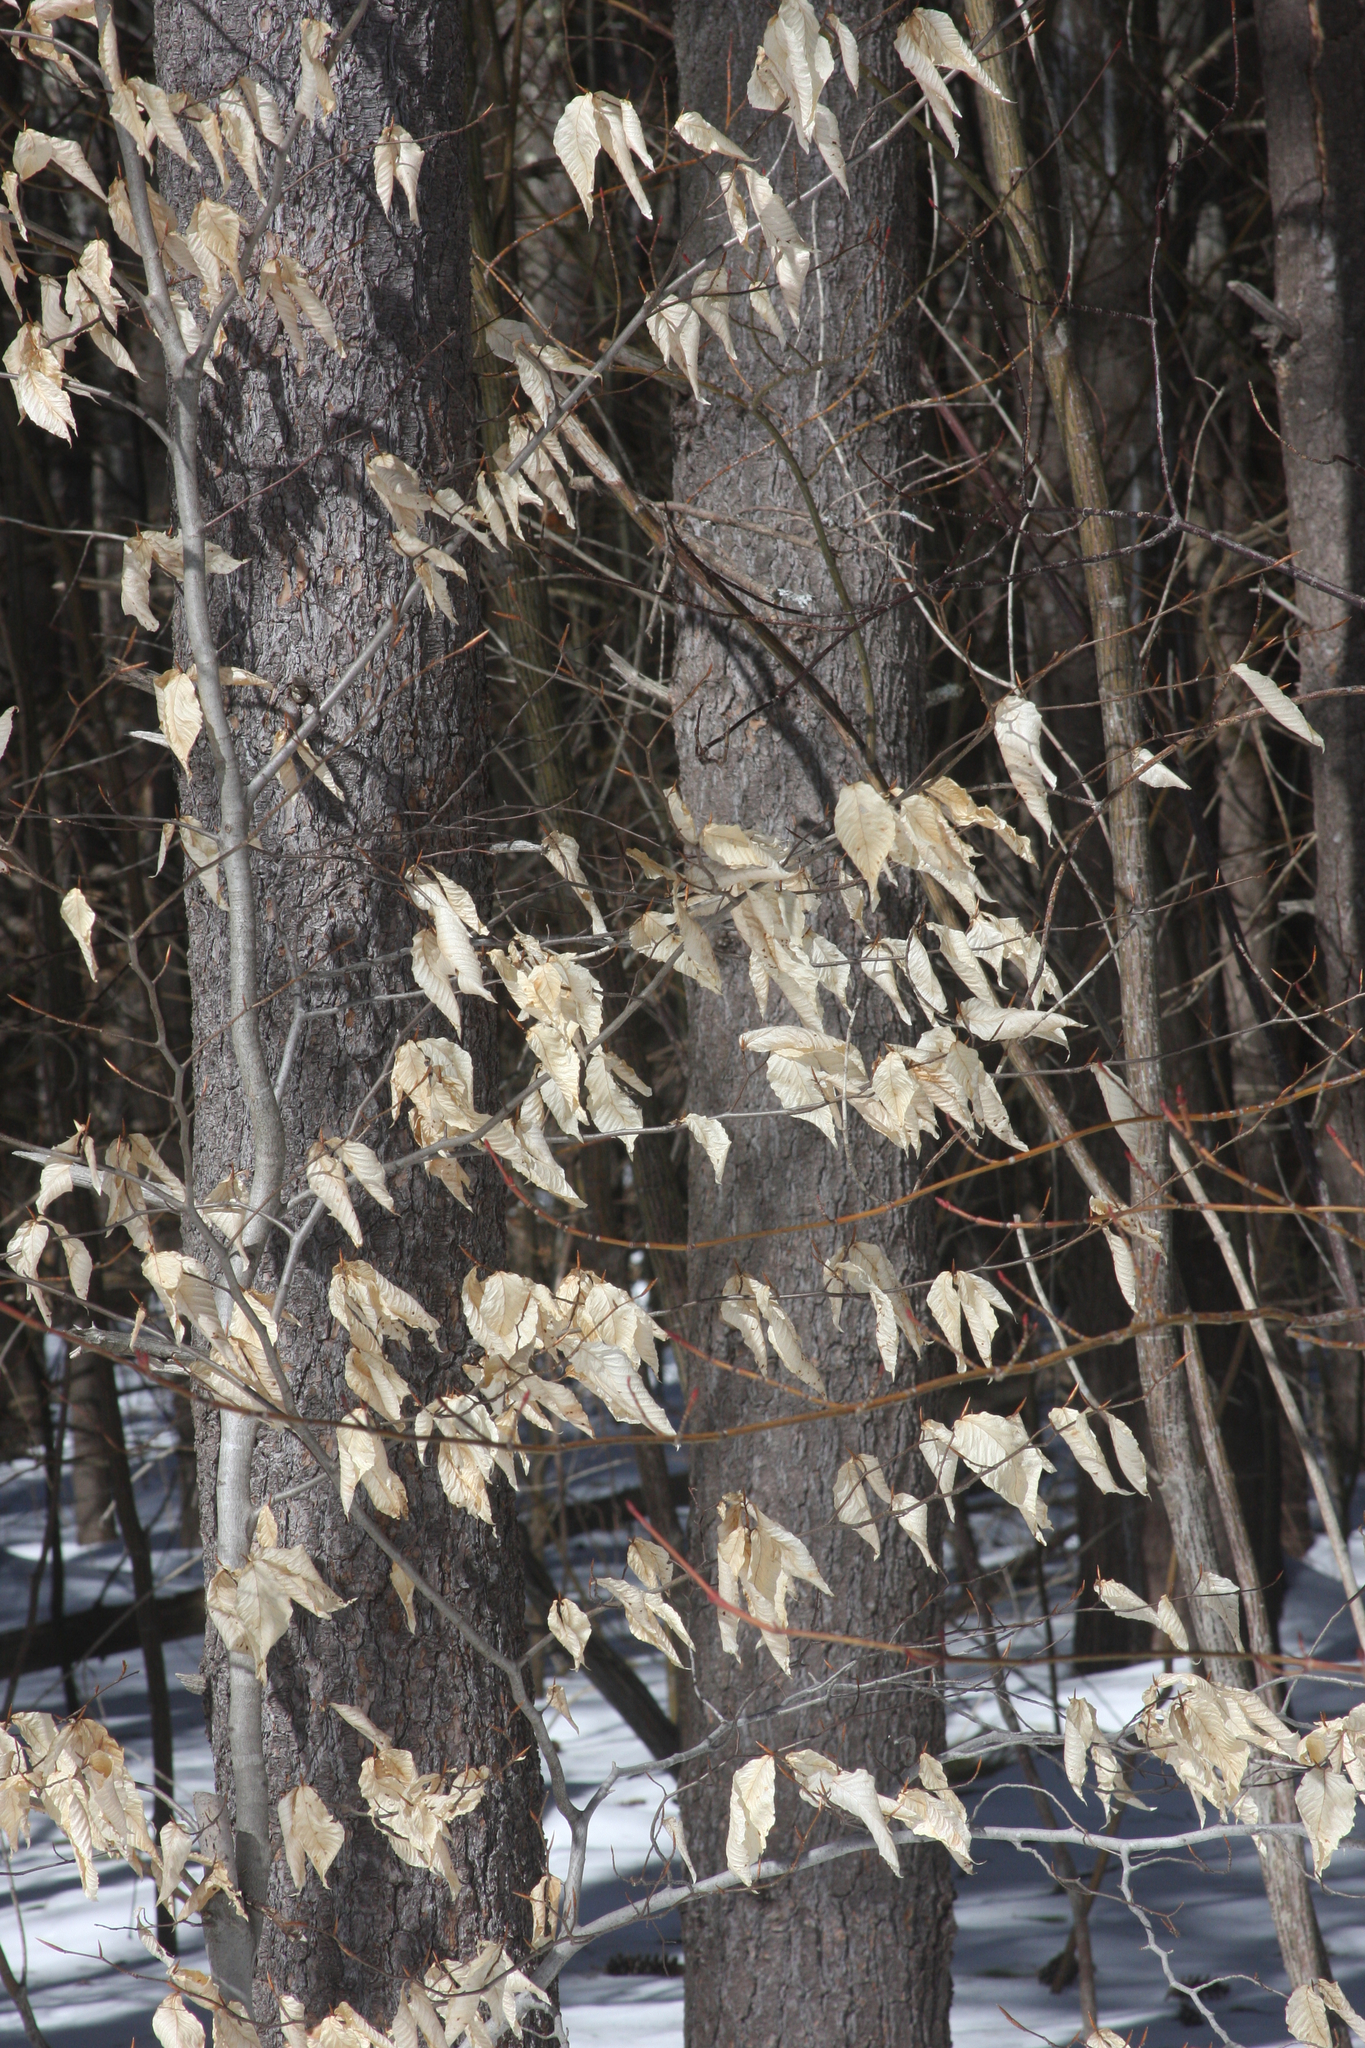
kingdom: Plantae
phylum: Tracheophyta
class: Magnoliopsida
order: Fagales
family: Fagaceae
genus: Fagus
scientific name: Fagus grandifolia
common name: American beech
